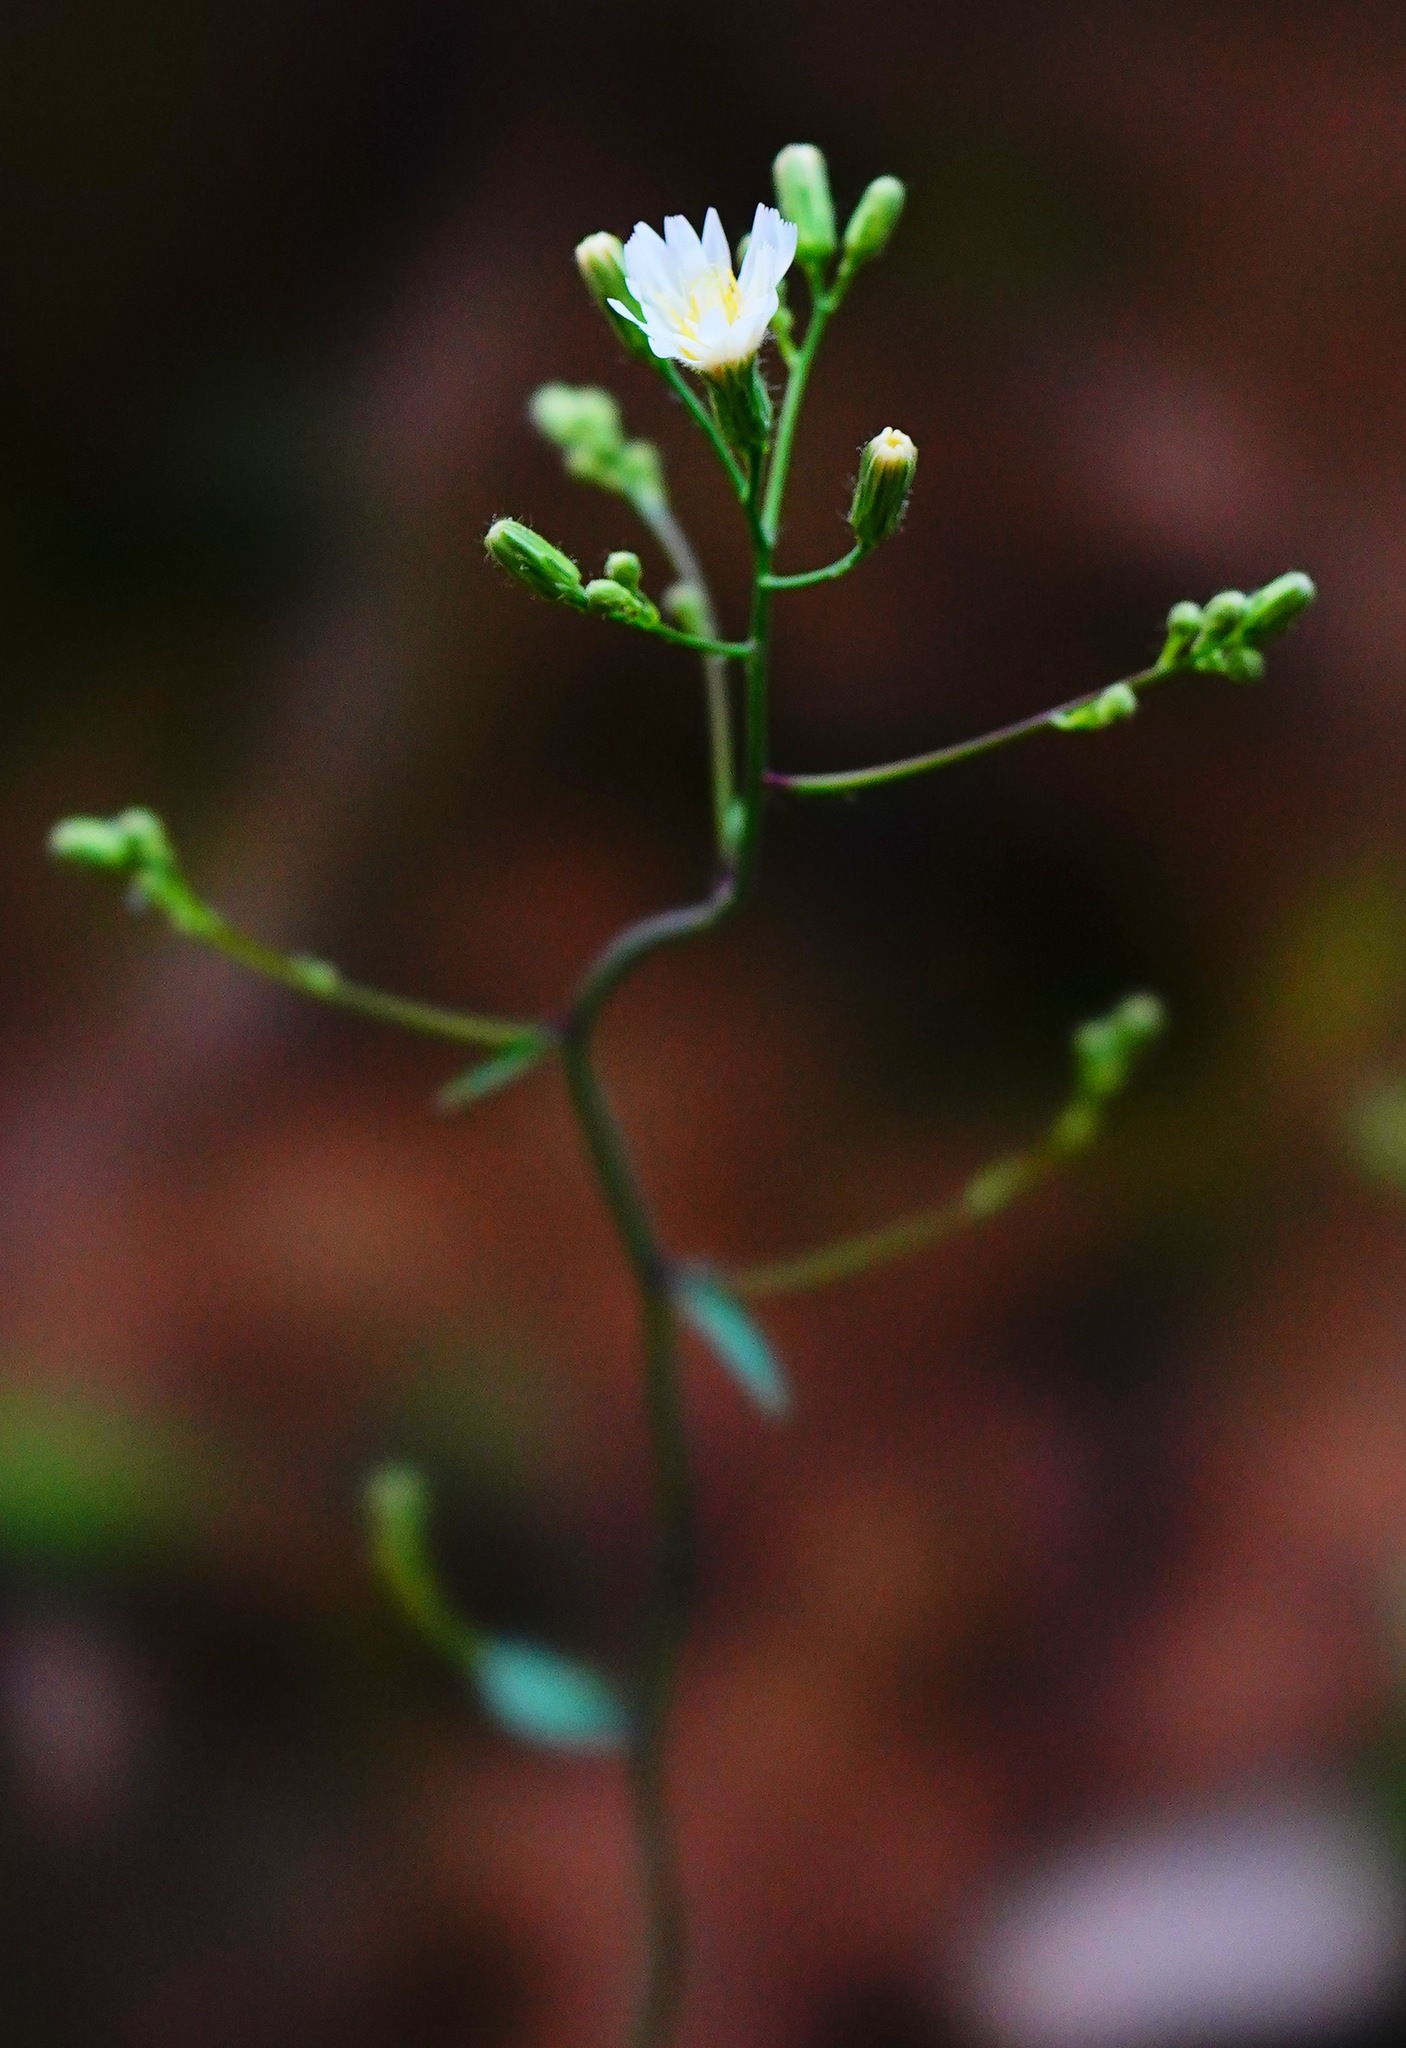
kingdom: Plantae
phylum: Tracheophyta
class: Magnoliopsida
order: Asterales
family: Asteraceae
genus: Hieracium
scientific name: Hieracium albiflorum
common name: White hawkweed
